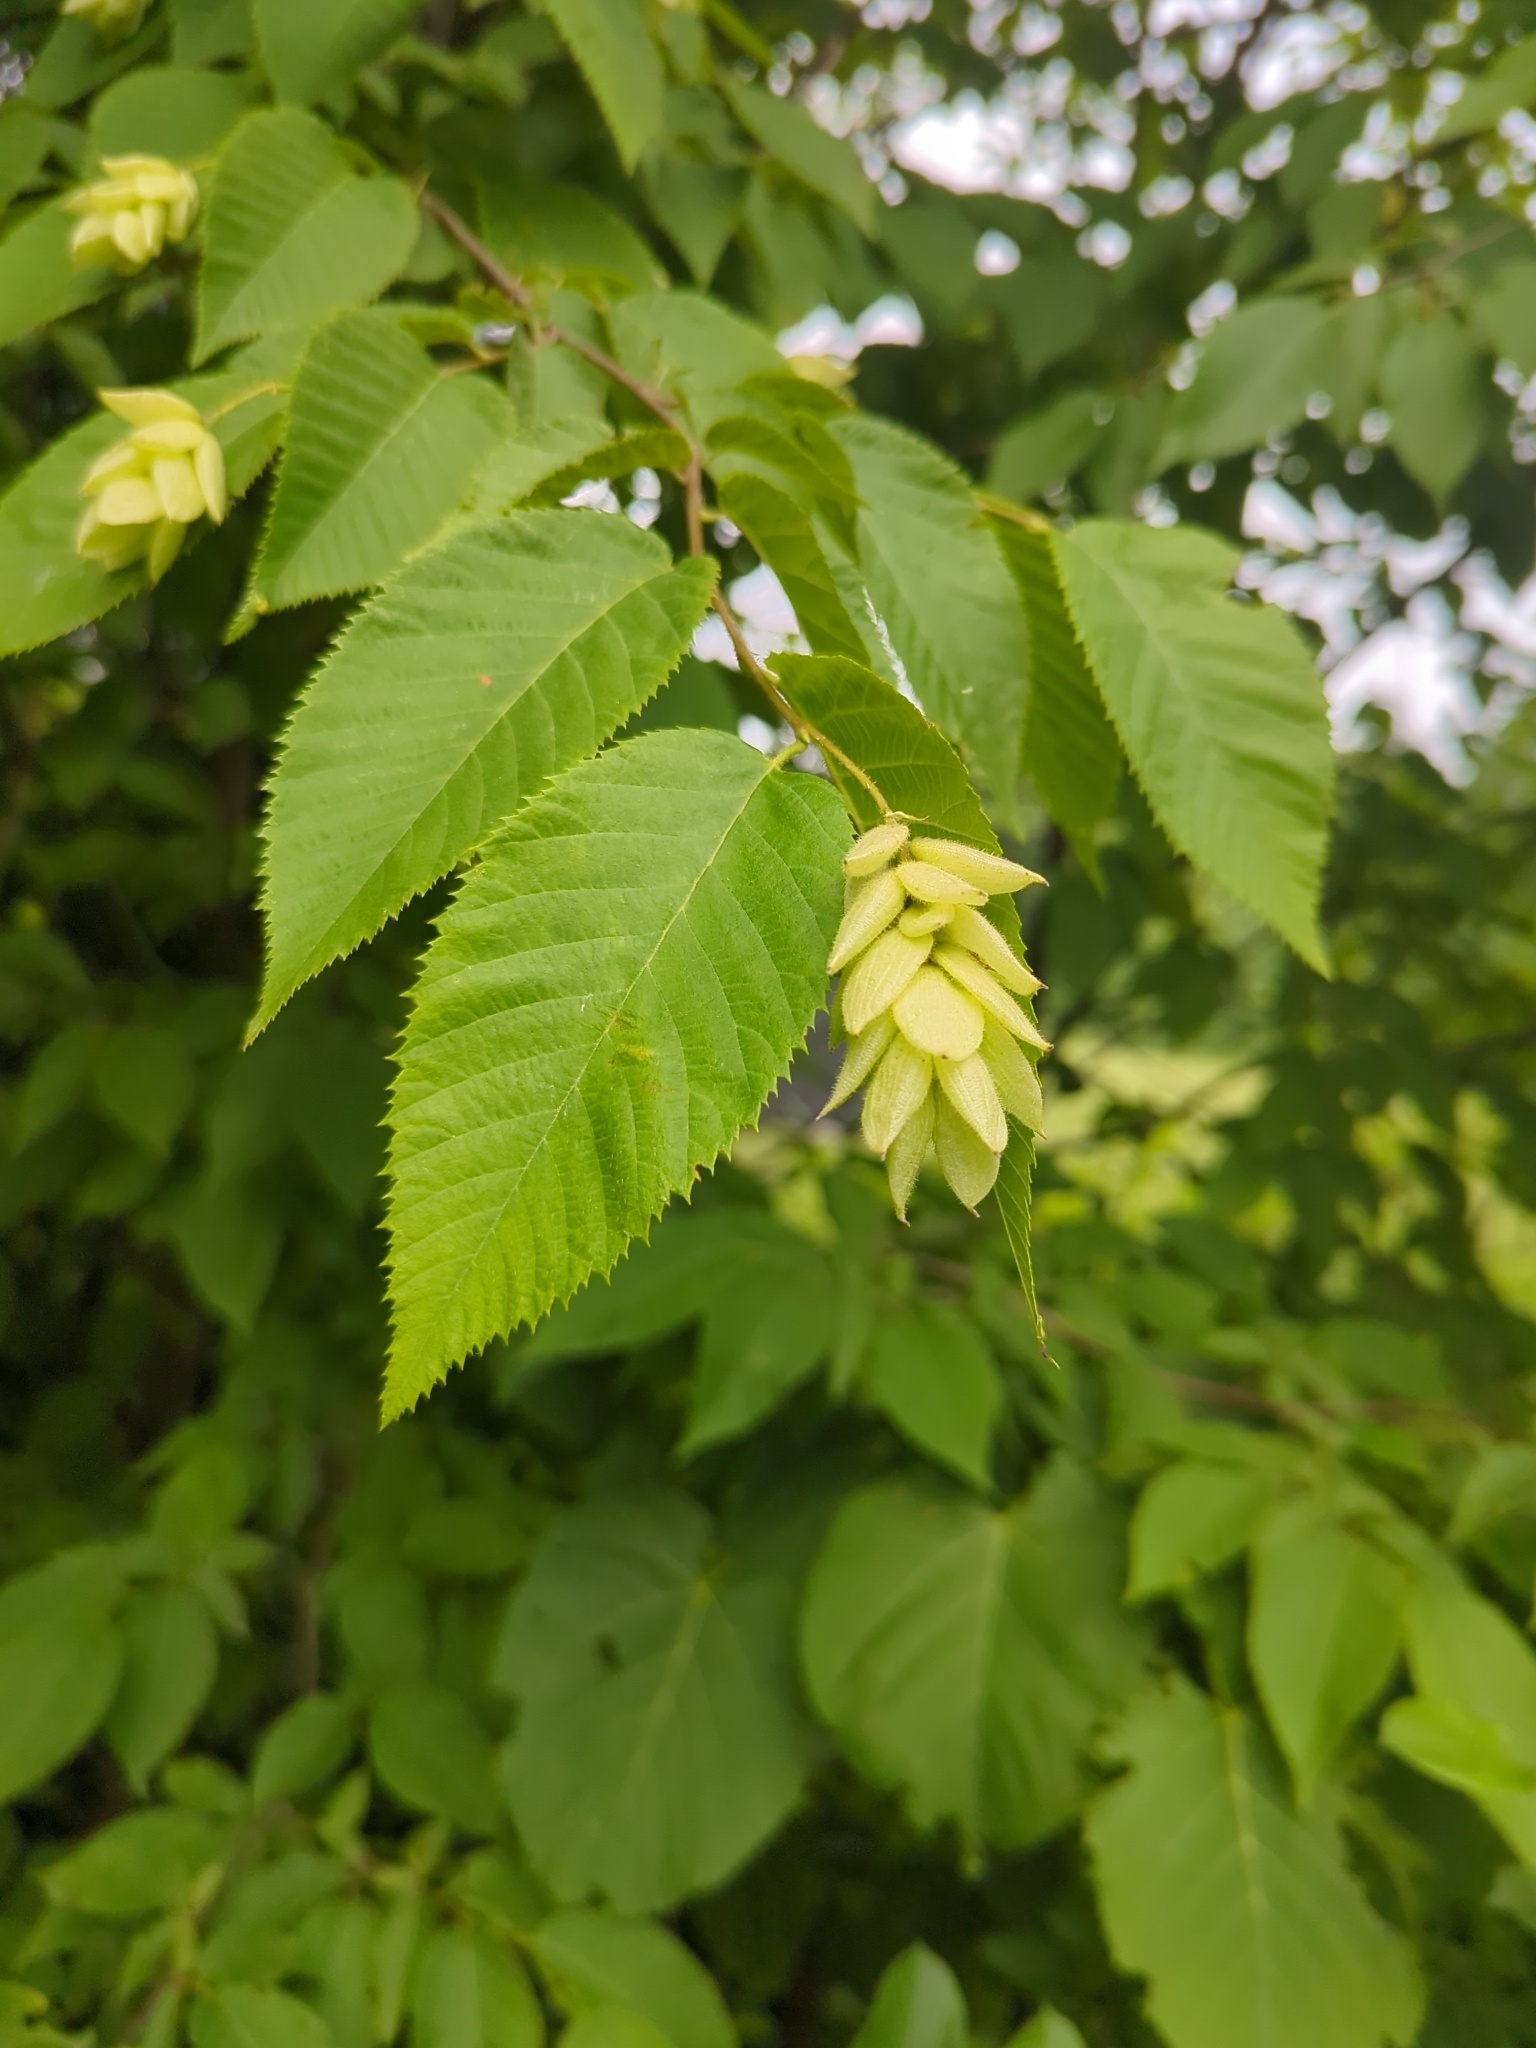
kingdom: Plantae
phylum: Tracheophyta
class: Magnoliopsida
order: Fagales
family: Betulaceae
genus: Ostrya
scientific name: Ostrya virginiana
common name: Ironwood
